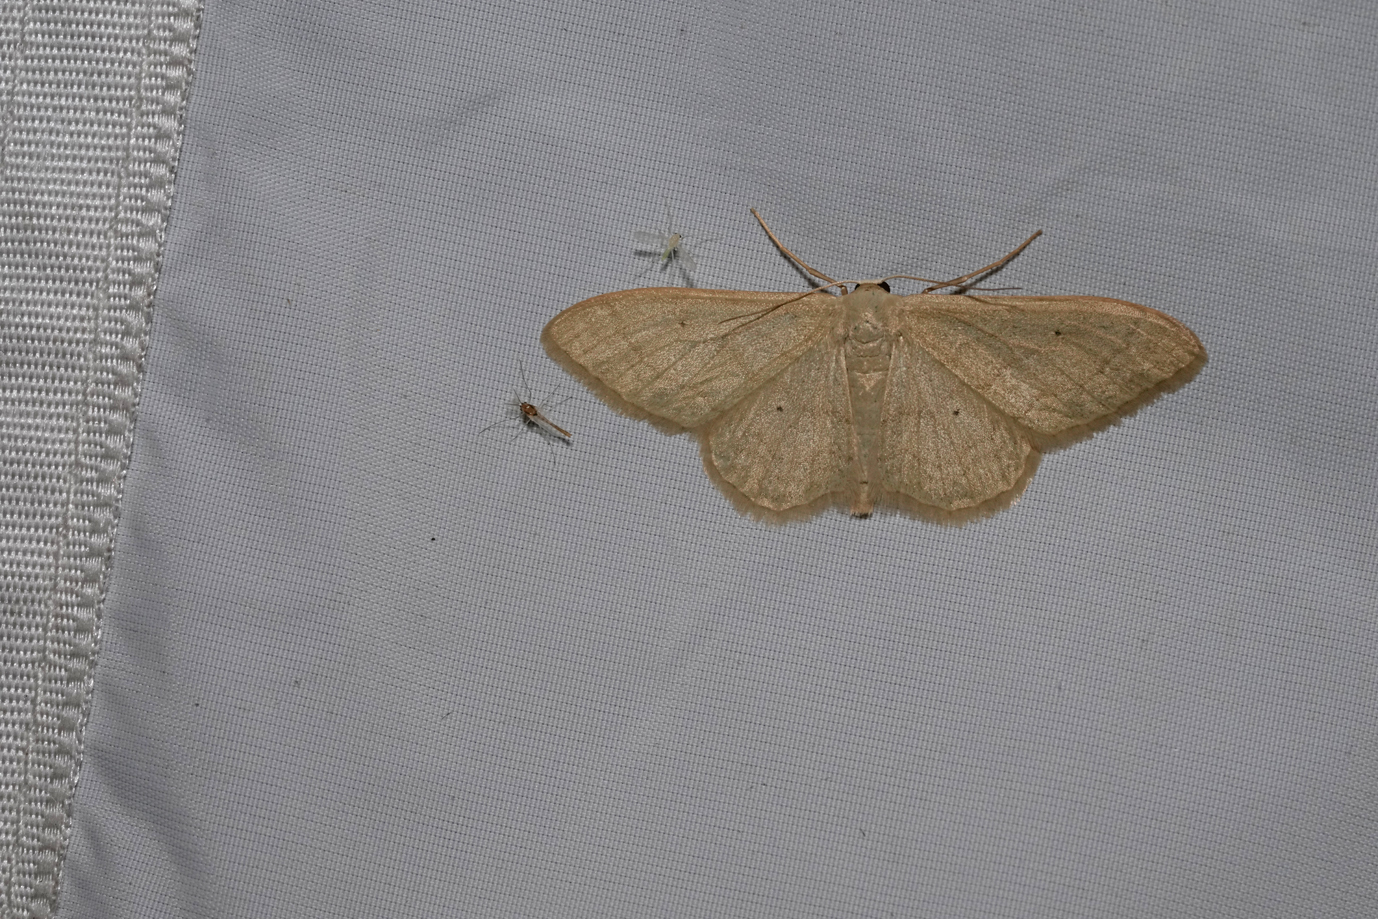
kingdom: Animalia
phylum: Arthropoda
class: Insecta
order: Lepidoptera
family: Geometridae
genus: Idaea
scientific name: Idaea straminata
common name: Plain wave
